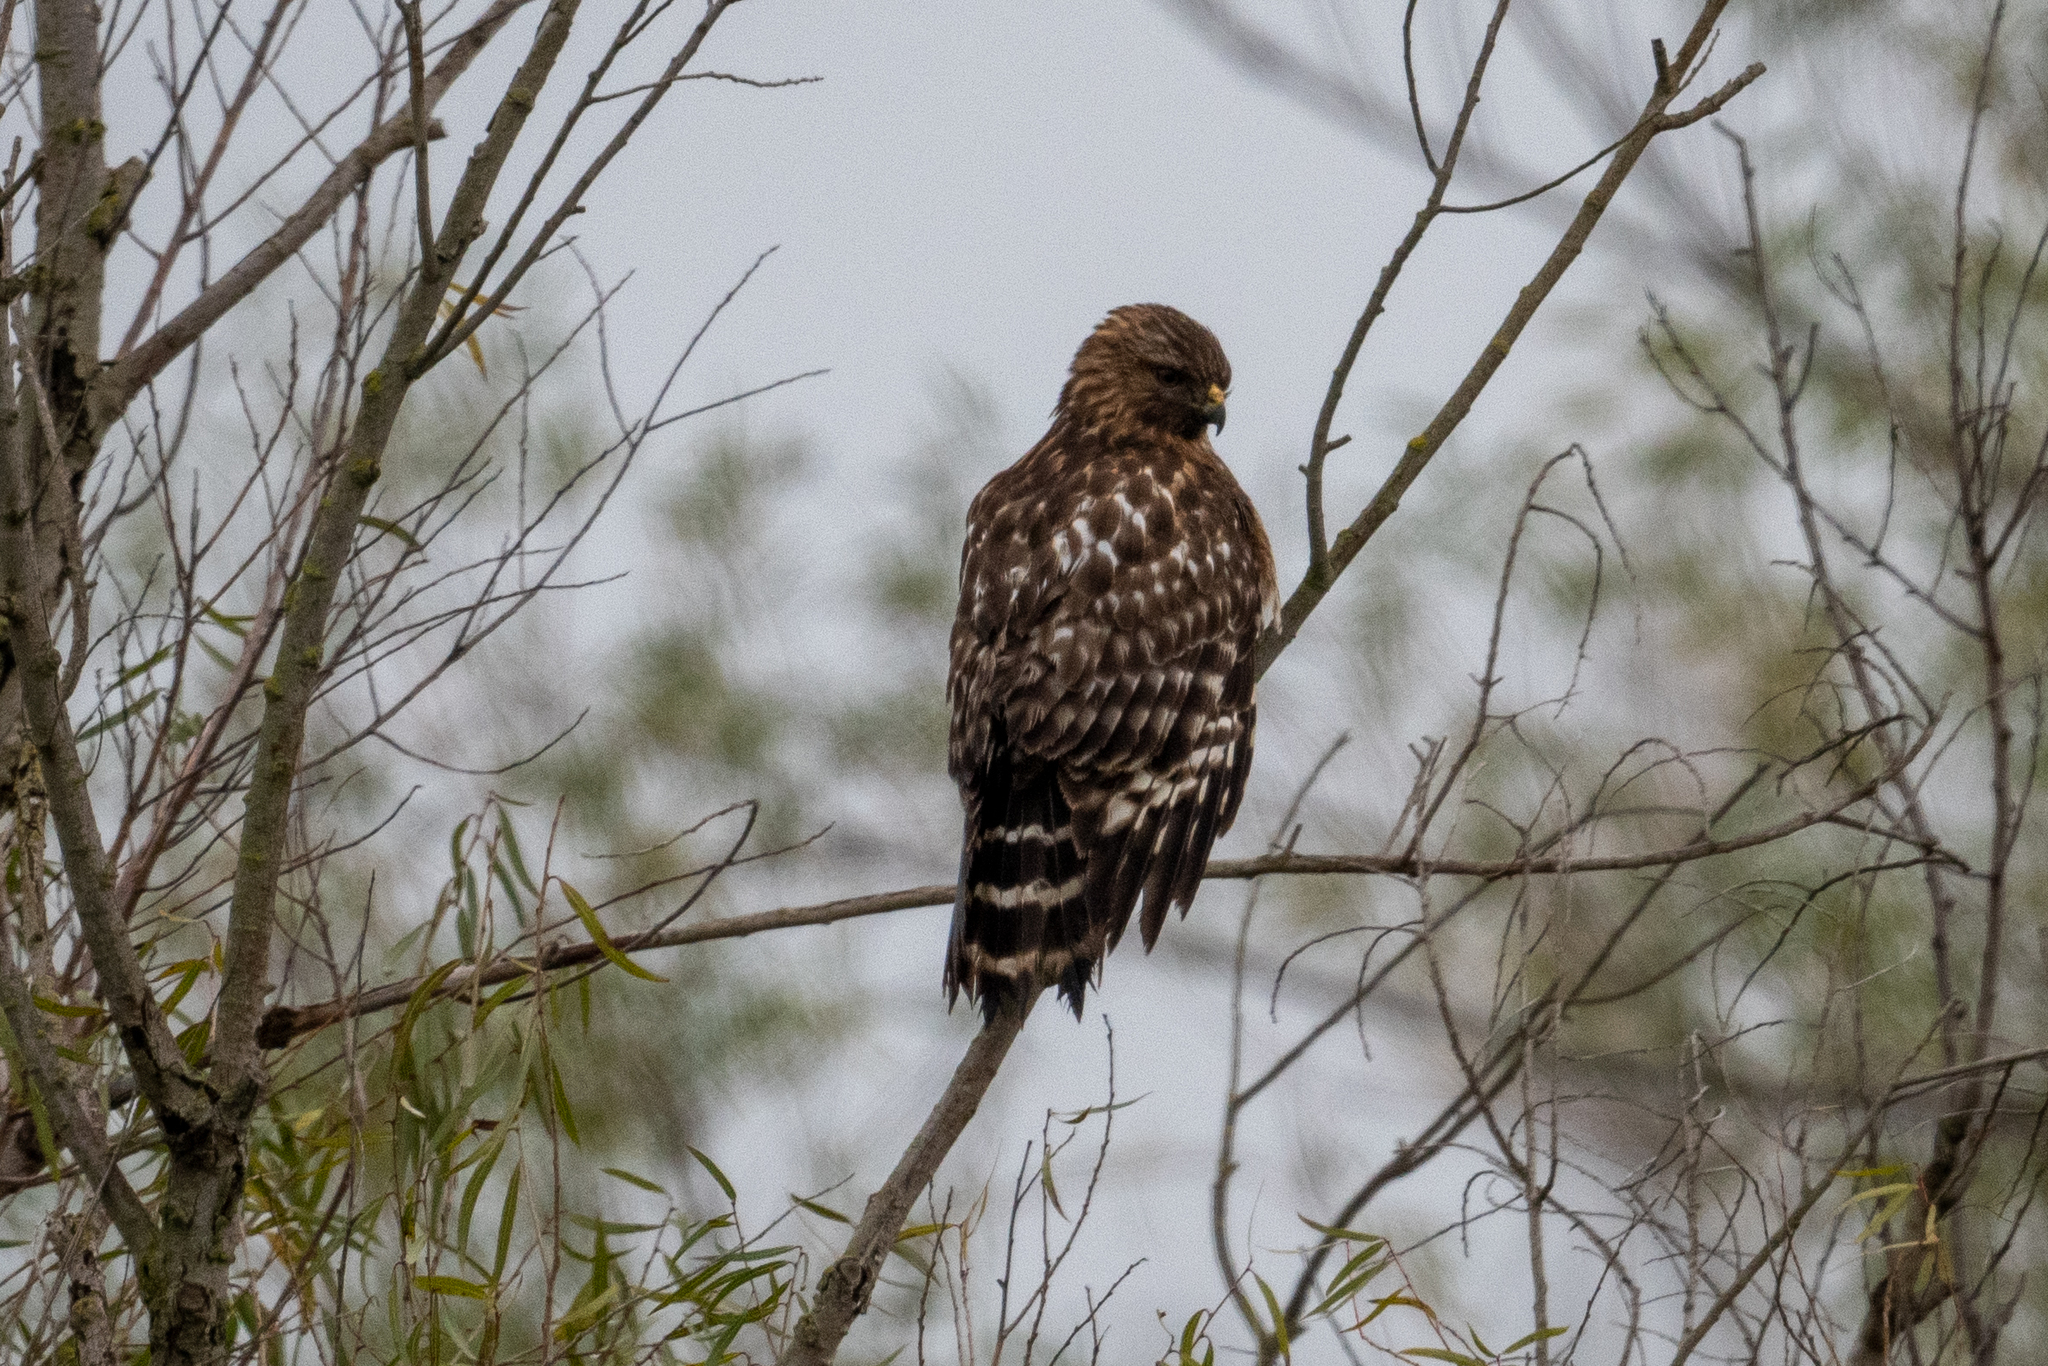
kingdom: Animalia
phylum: Chordata
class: Aves
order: Accipitriformes
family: Accipitridae
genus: Buteo
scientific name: Buteo lineatus
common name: Red-shouldered hawk
